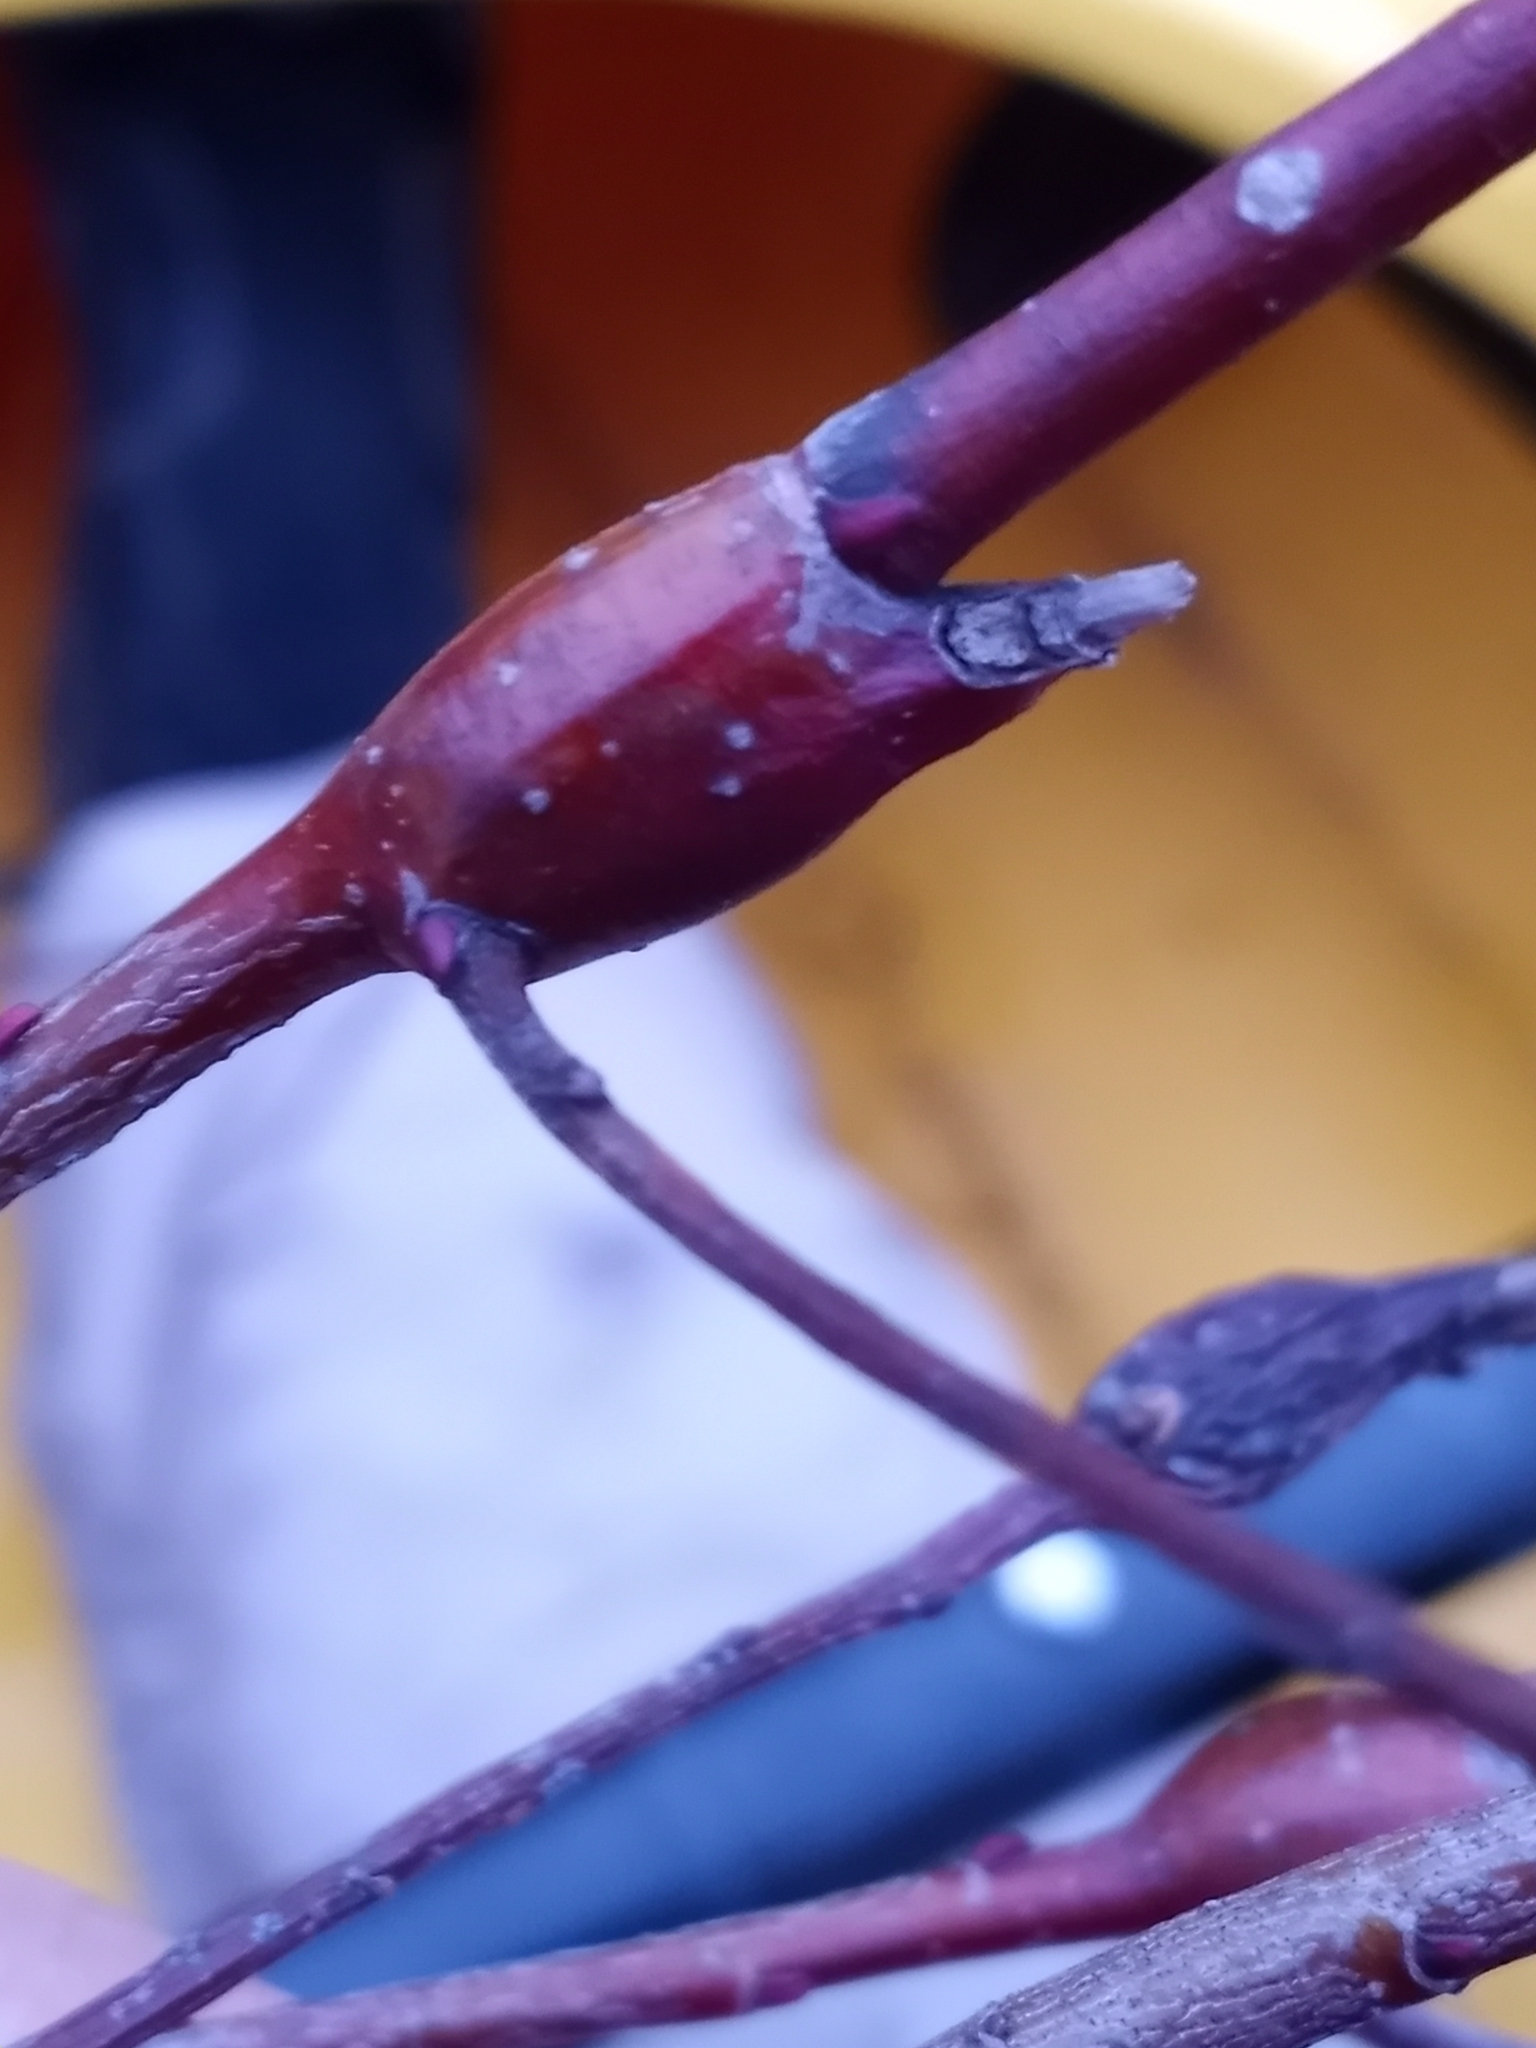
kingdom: Animalia
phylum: Arthropoda
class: Insecta
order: Diptera
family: Cecidomyiidae
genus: Thecodiplosis
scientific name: Thecodiplosis pinirigidae
